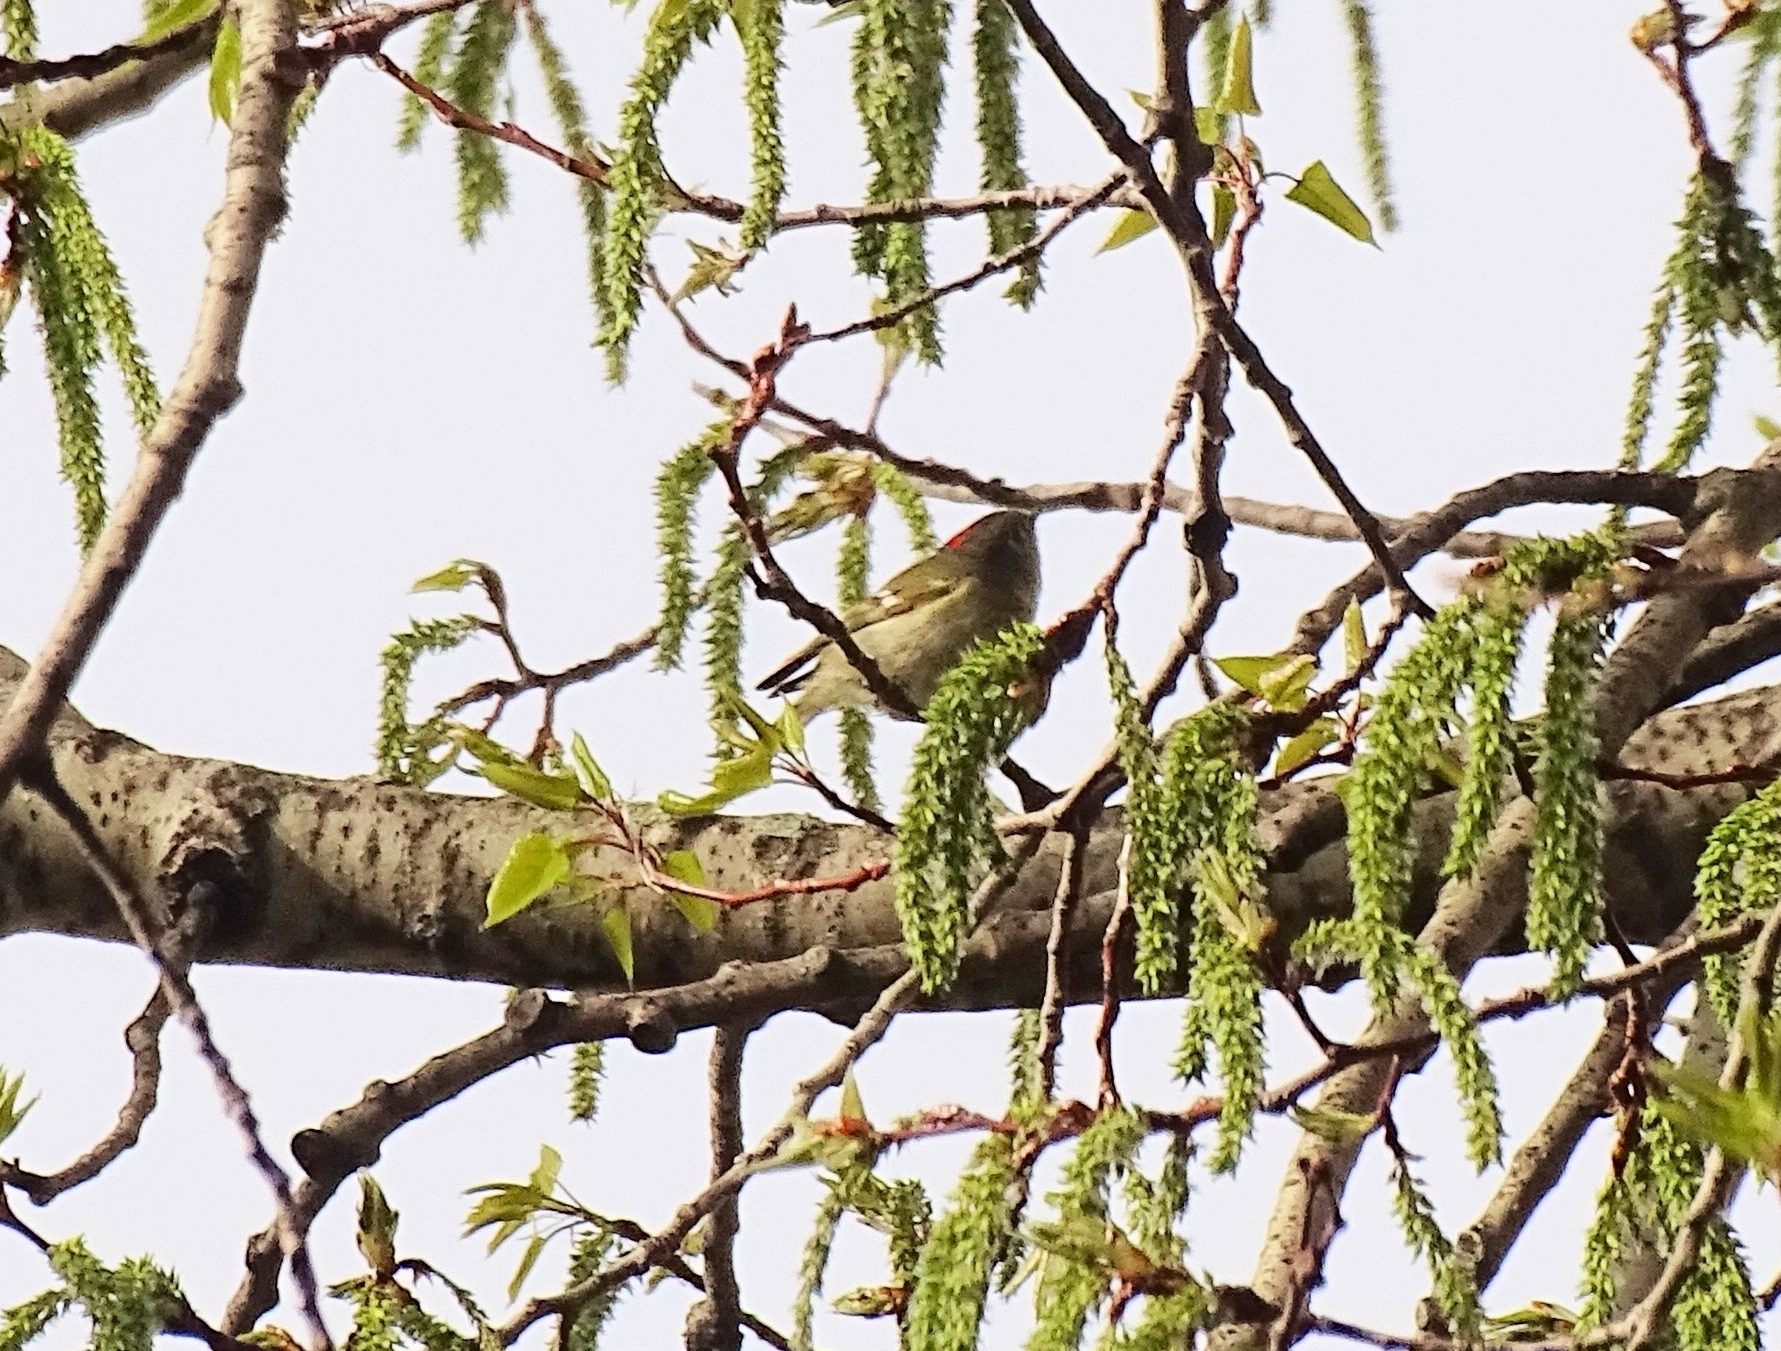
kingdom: Animalia
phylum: Chordata
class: Aves
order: Passeriformes
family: Regulidae
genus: Regulus
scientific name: Regulus calendula
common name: Ruby-crowned kinglet
